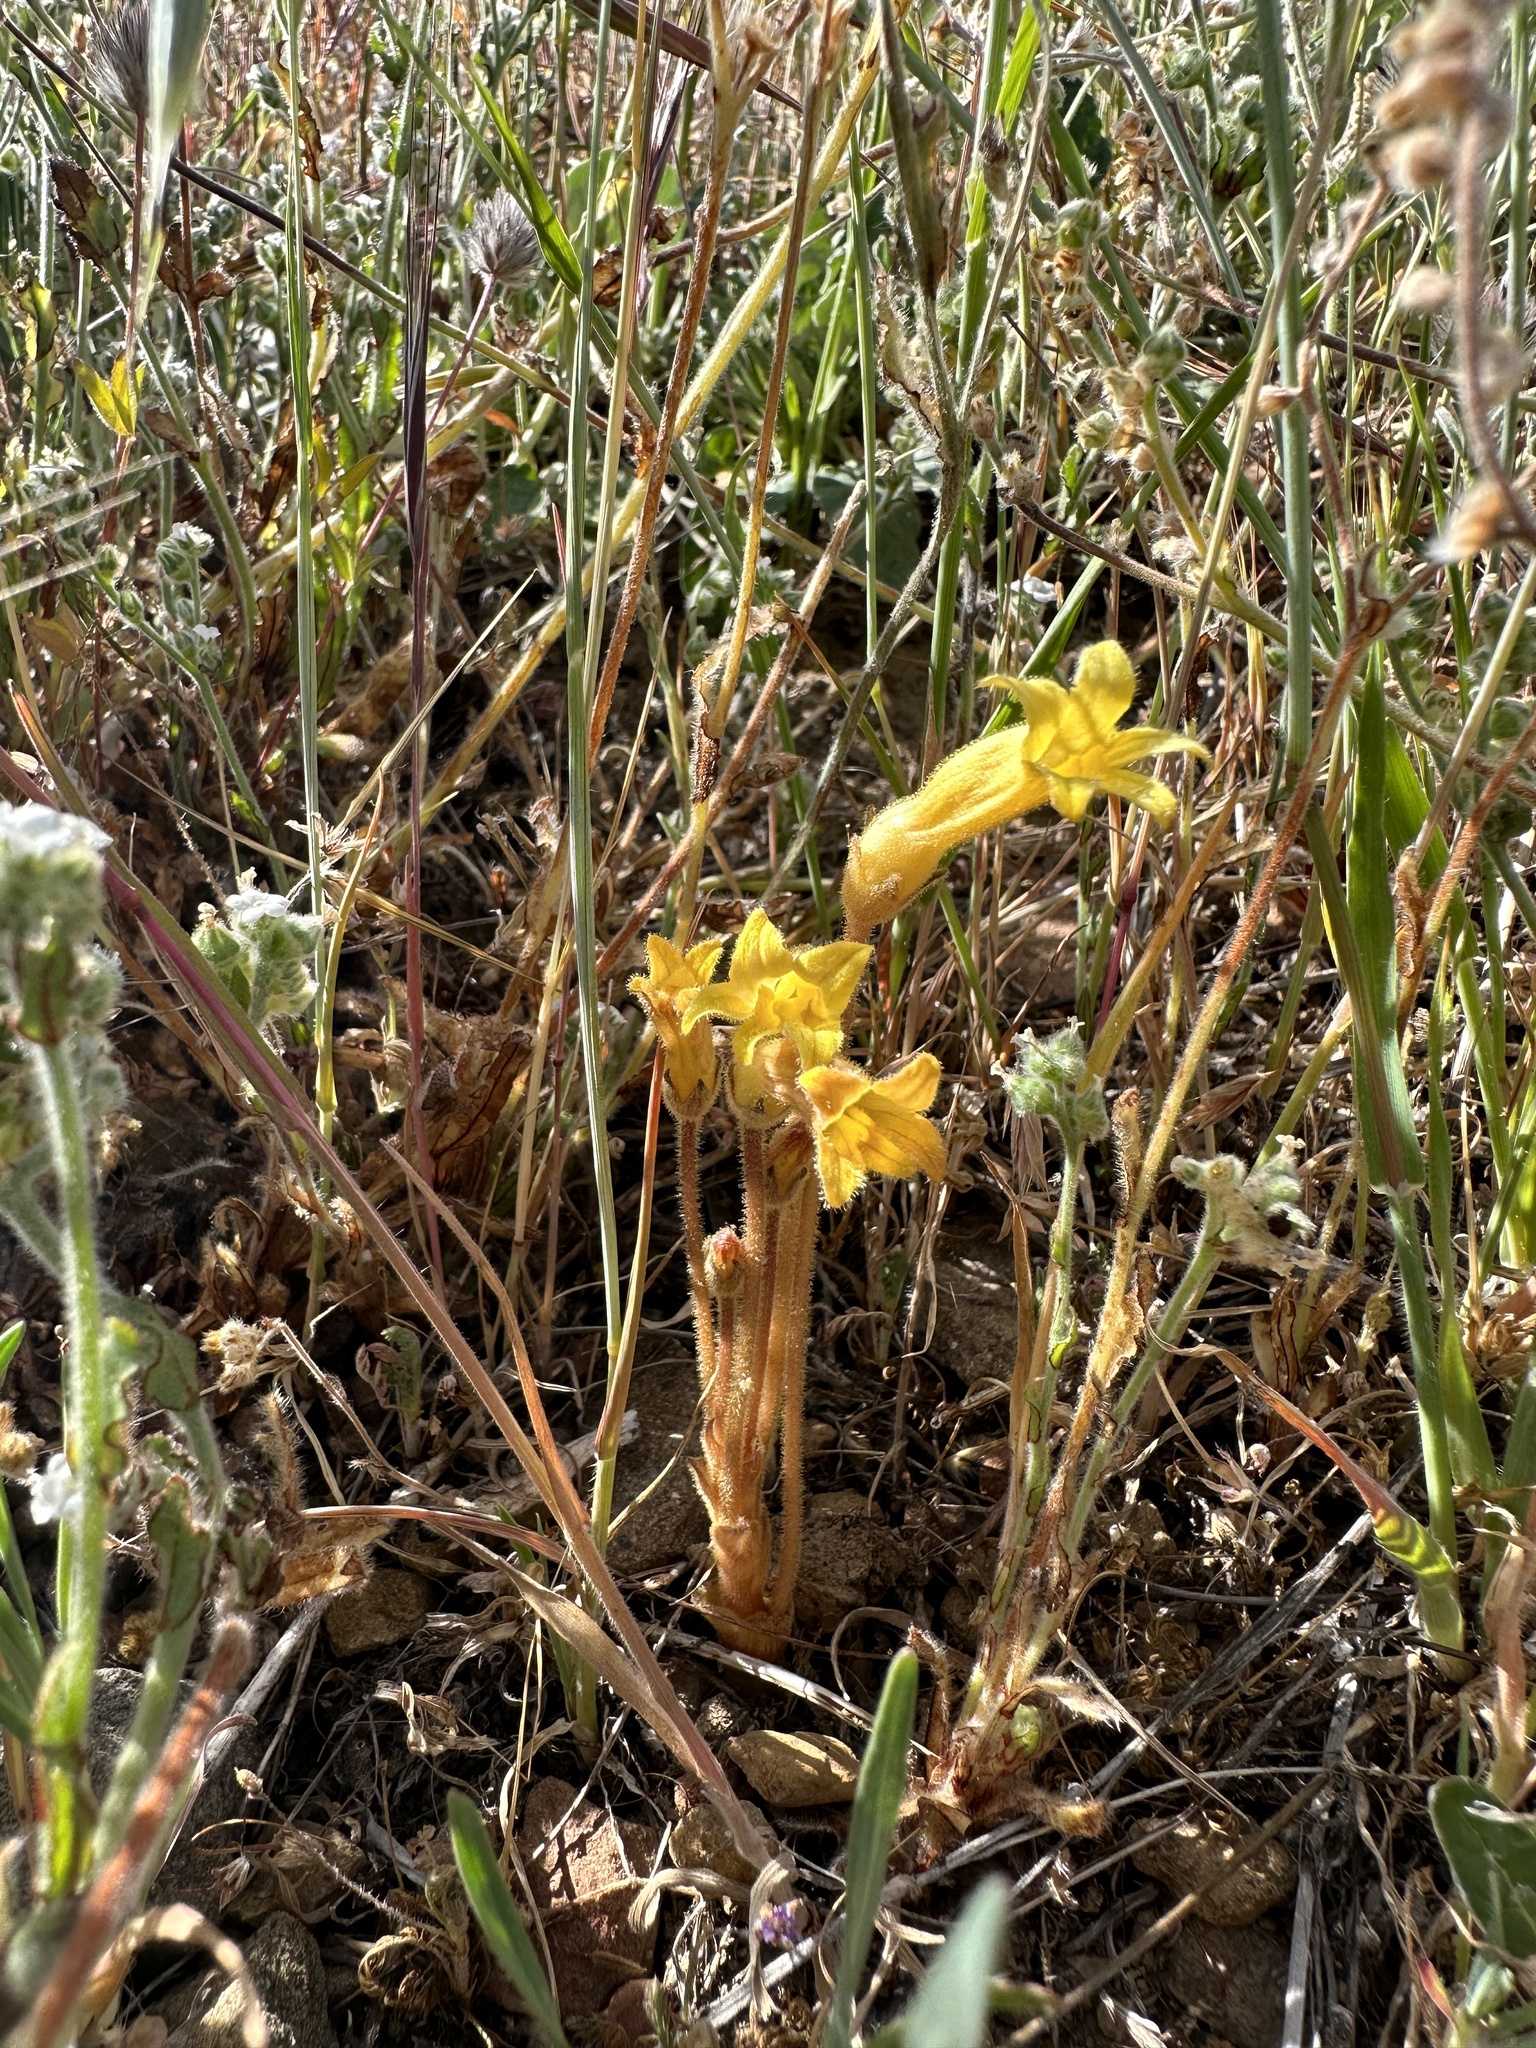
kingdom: Plantae
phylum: Tracheophyta
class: Magnoliopsida
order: Lamiales
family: Orobanchaceae
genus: Aphyllon
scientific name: Aphyllon franciscanum
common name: San francisco broomrape
